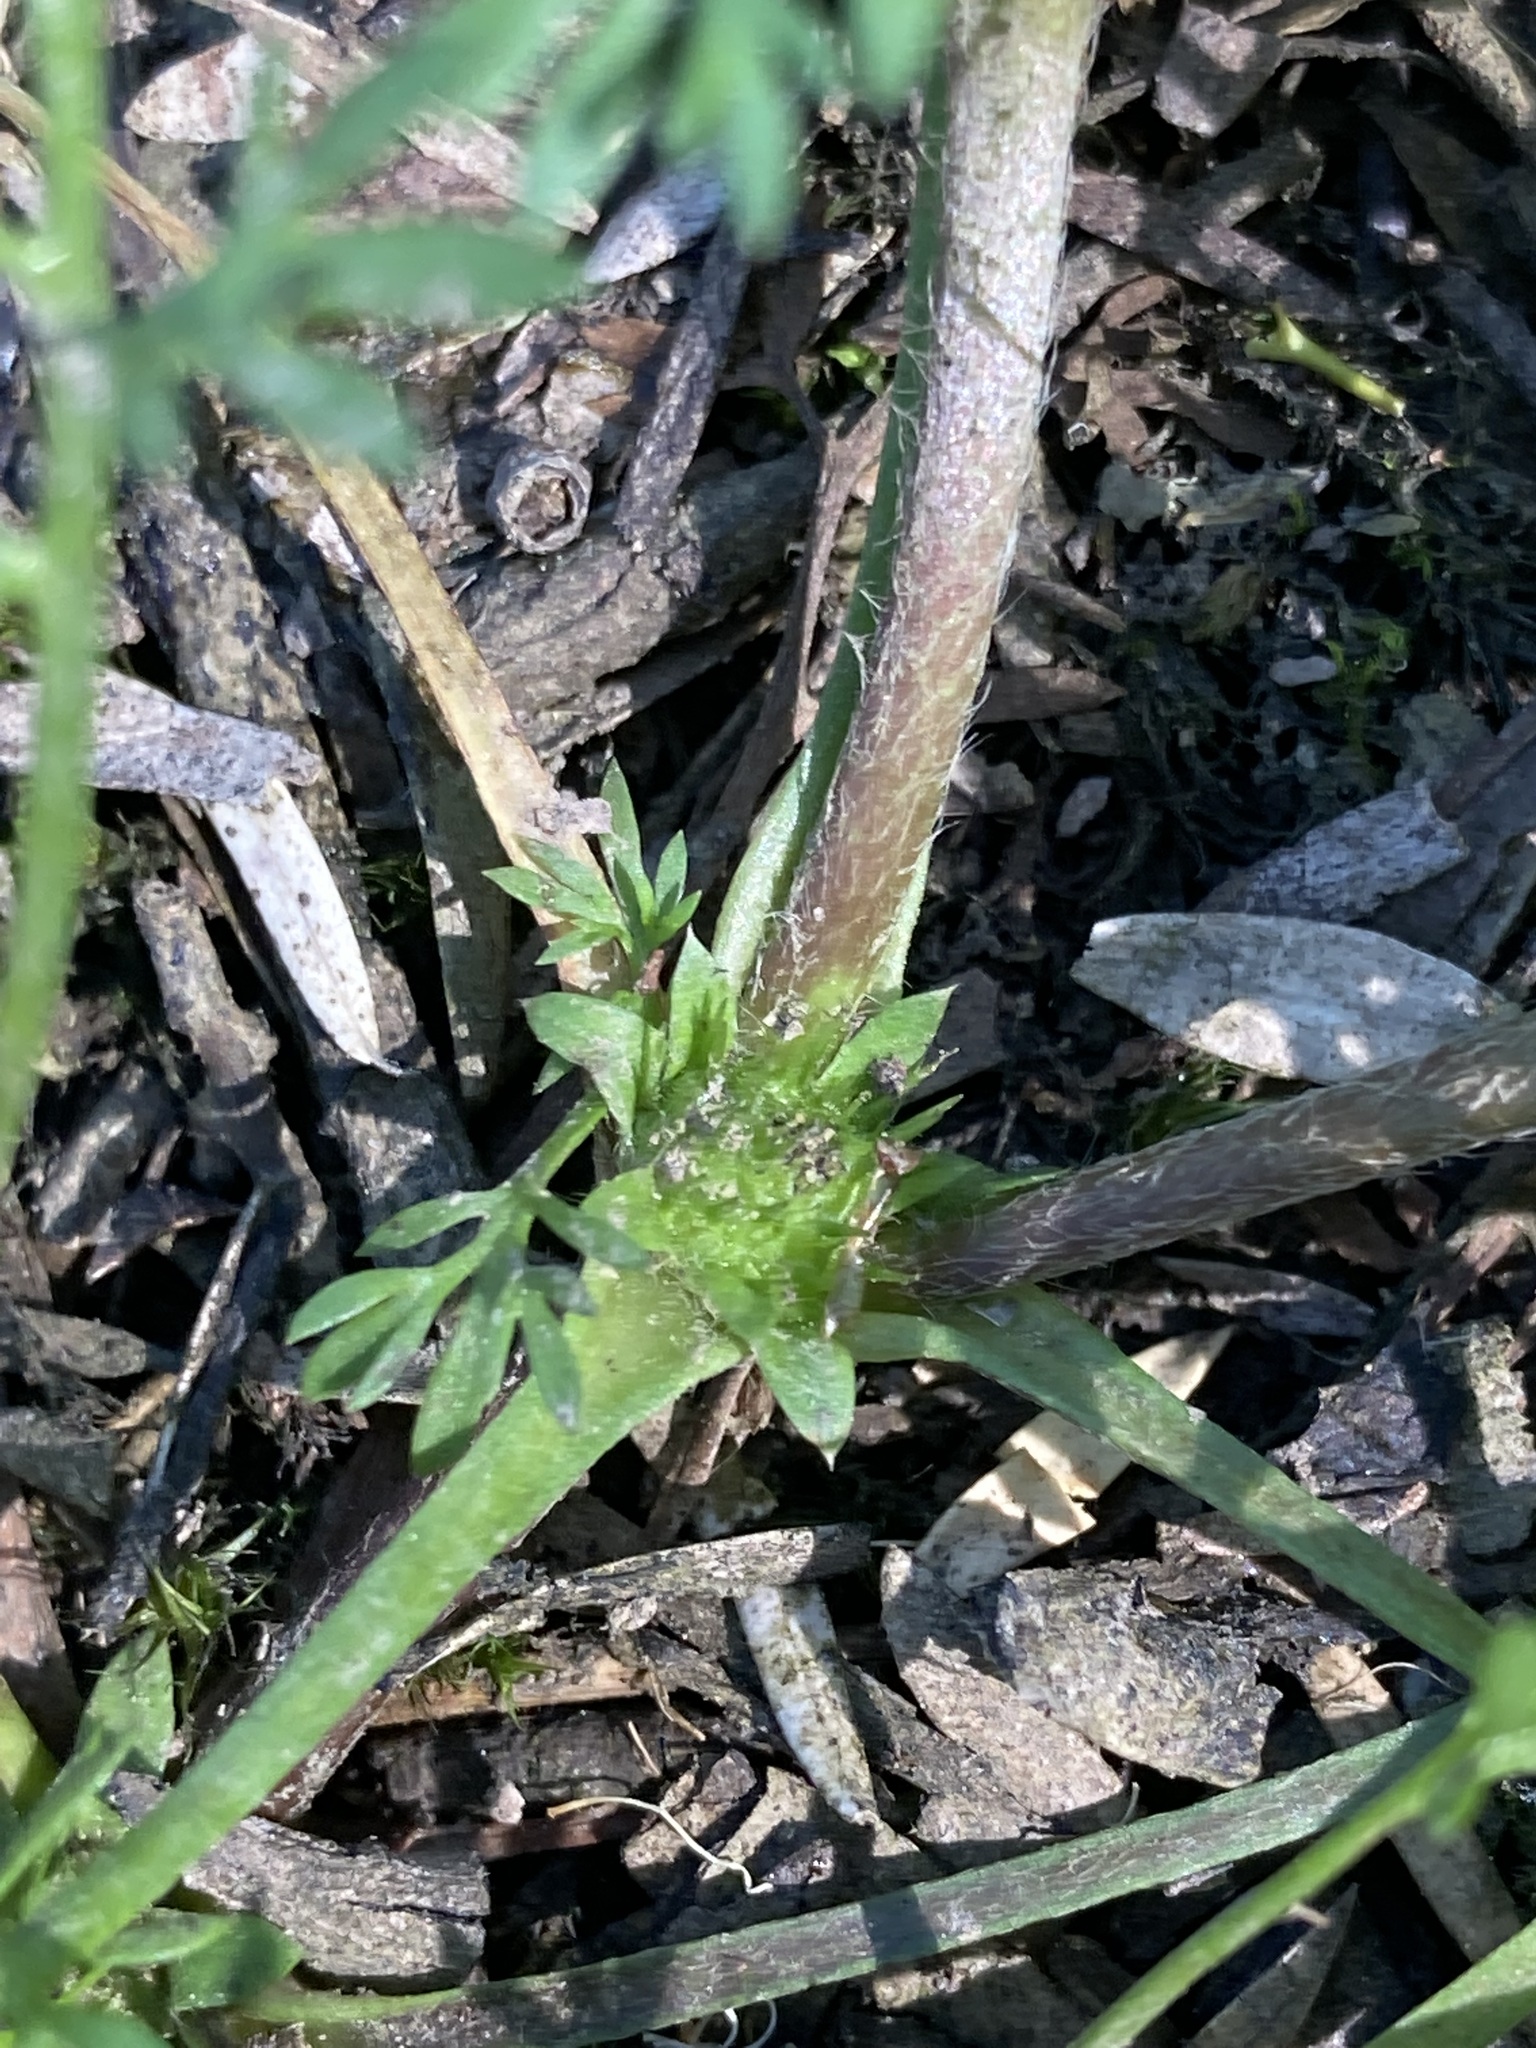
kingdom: Plantae
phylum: Tracheophyta
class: Magnoliopsida
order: Asterales
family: Asteraceae
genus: Soliva
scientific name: Soliva sessilis
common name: Field burrweed
